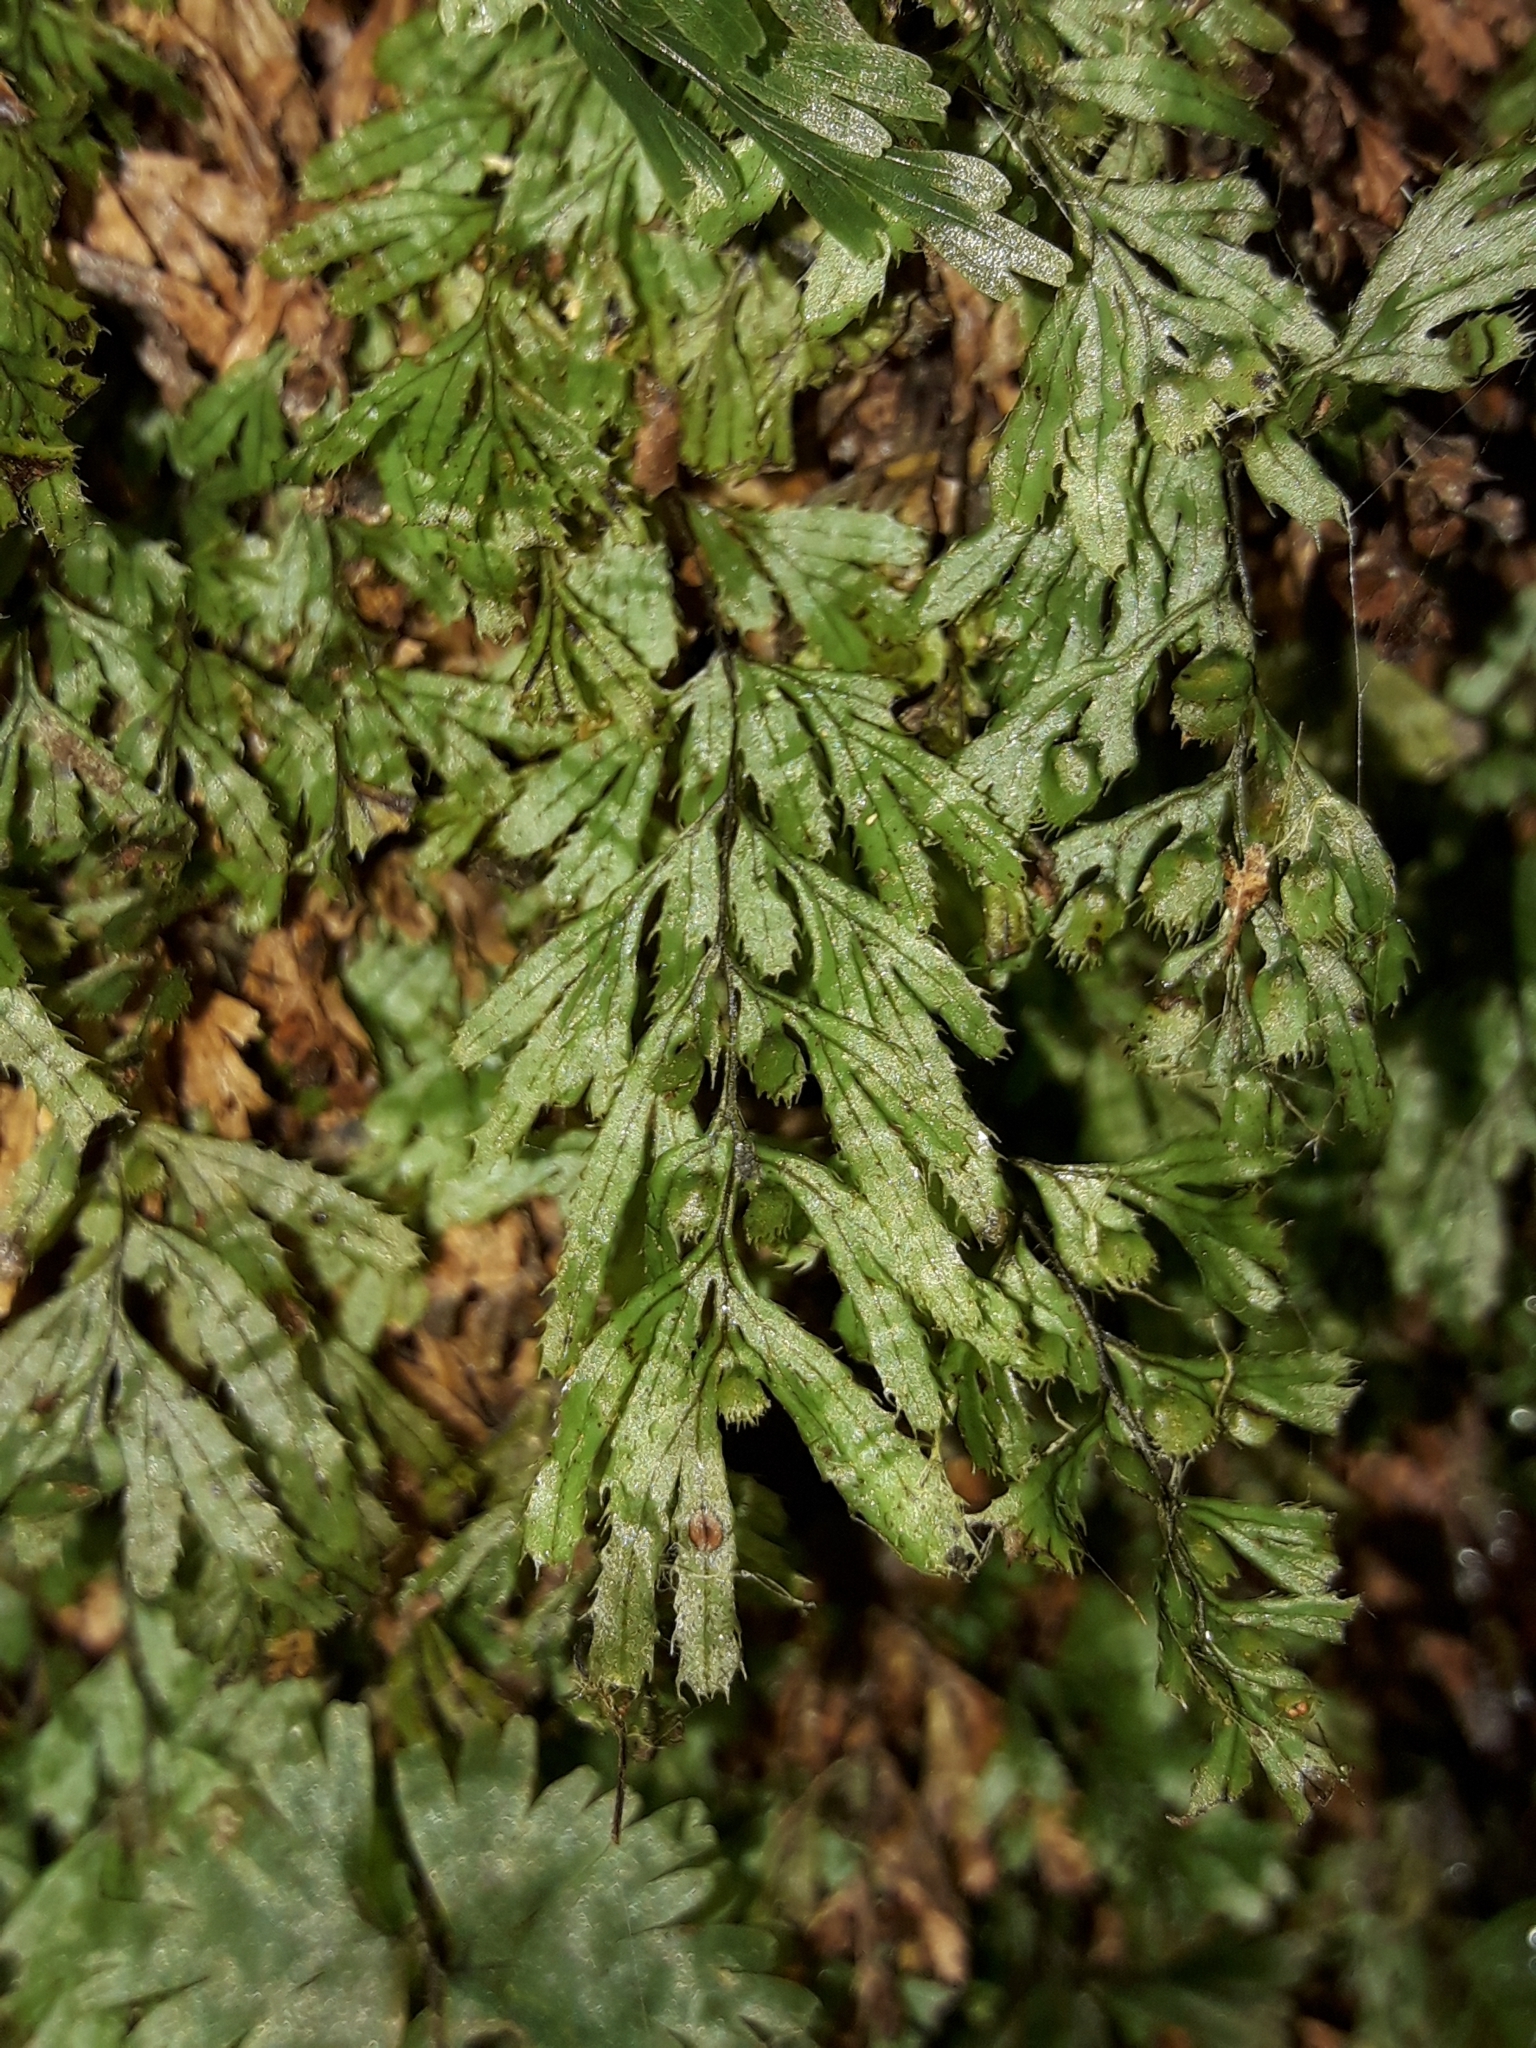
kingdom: Plantae
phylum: Tracheophyta
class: Polypodiopsida
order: Hymenophyllales
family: Hymenophyllaceae
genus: Hymenophyllum
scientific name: Hymenophyllum revolutum
